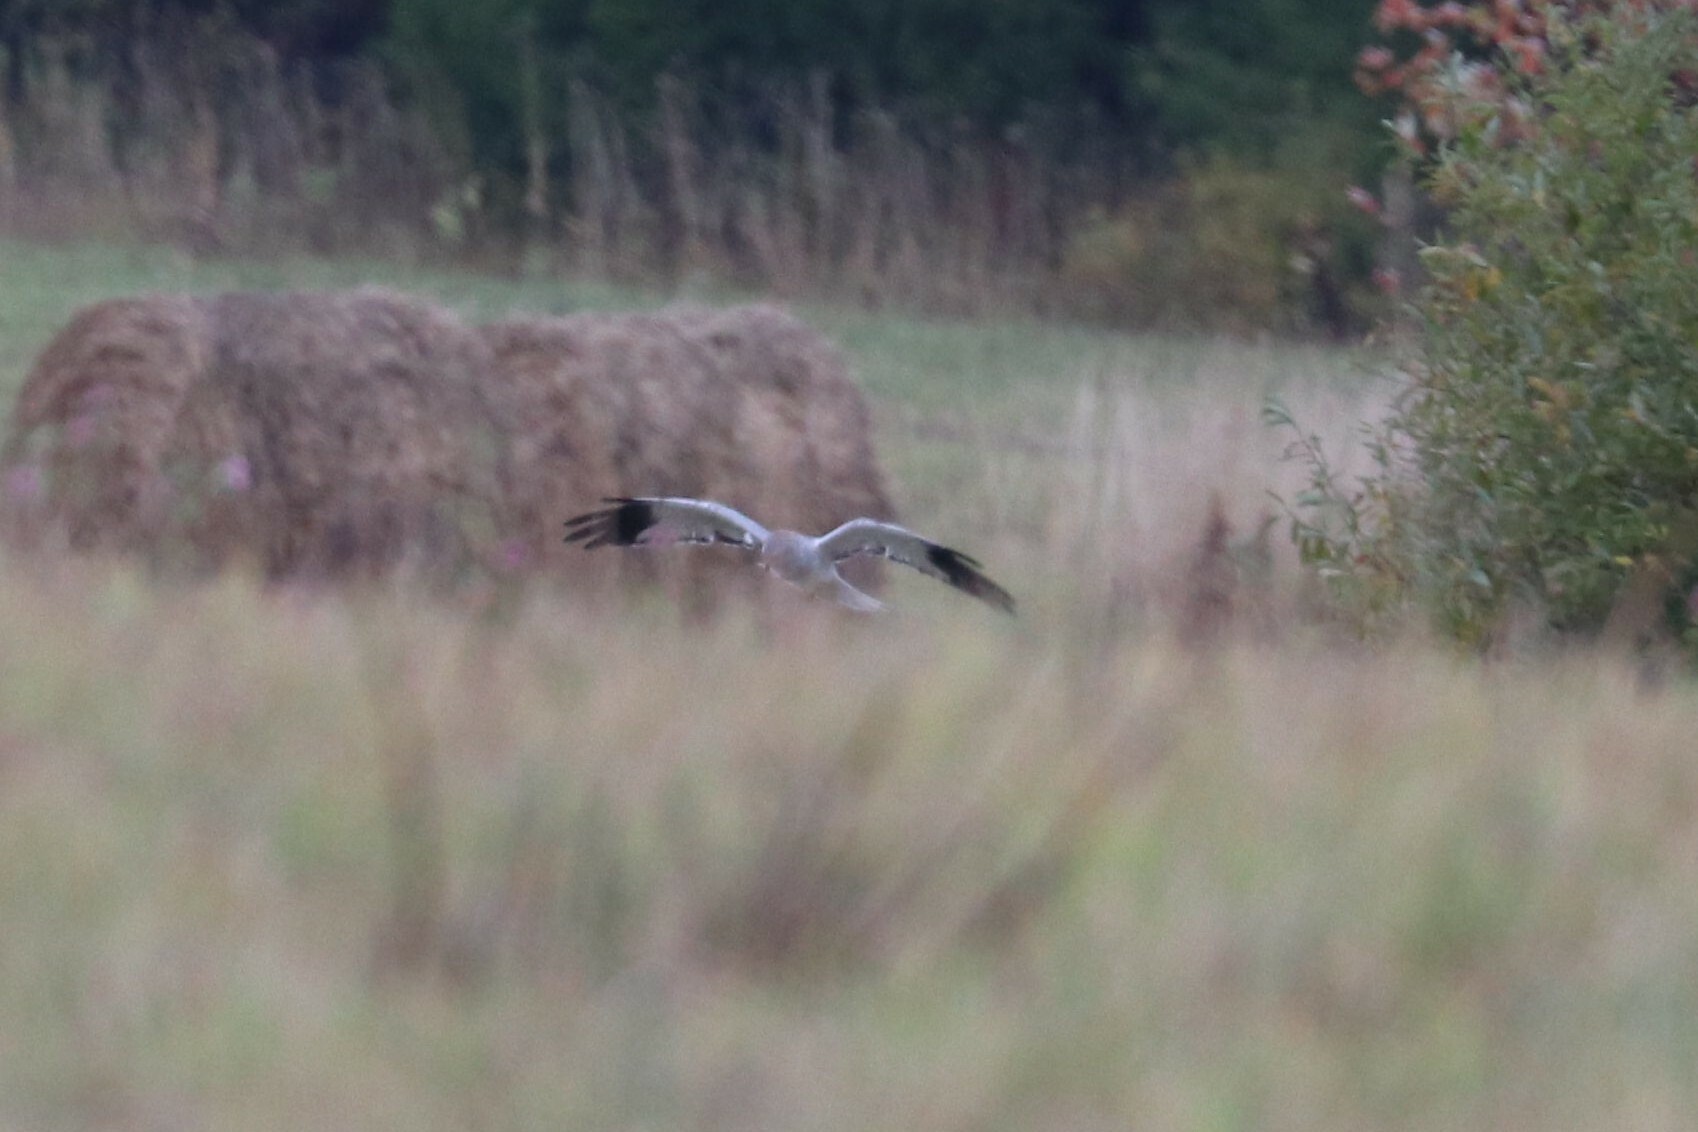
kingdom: Animalia
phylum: Chordata
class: Aves
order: Accipitriformes
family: Accipitridae
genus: Circus
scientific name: Circus cyaneus
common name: Hen harrier
